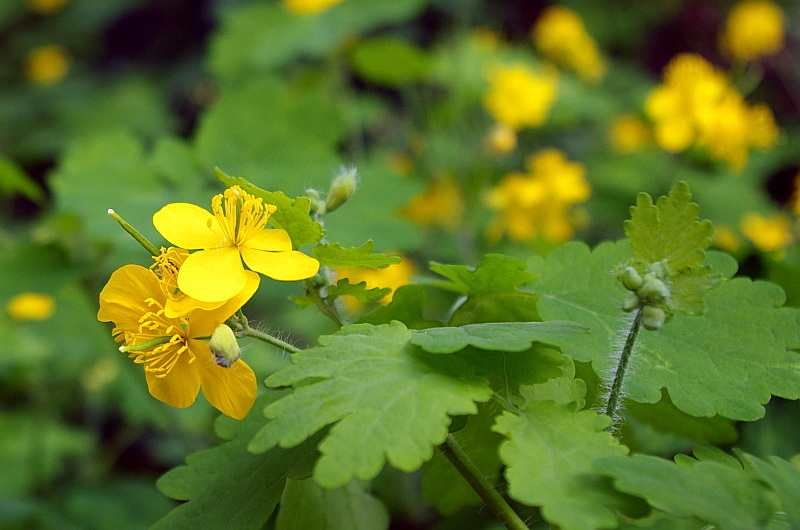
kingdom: Plantae
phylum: Tracheophyta
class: Magnoliopsida
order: Ranunculales
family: Papaveraceae
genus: Chelidonium
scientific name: Chelidonium majus
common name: Greater celandine
